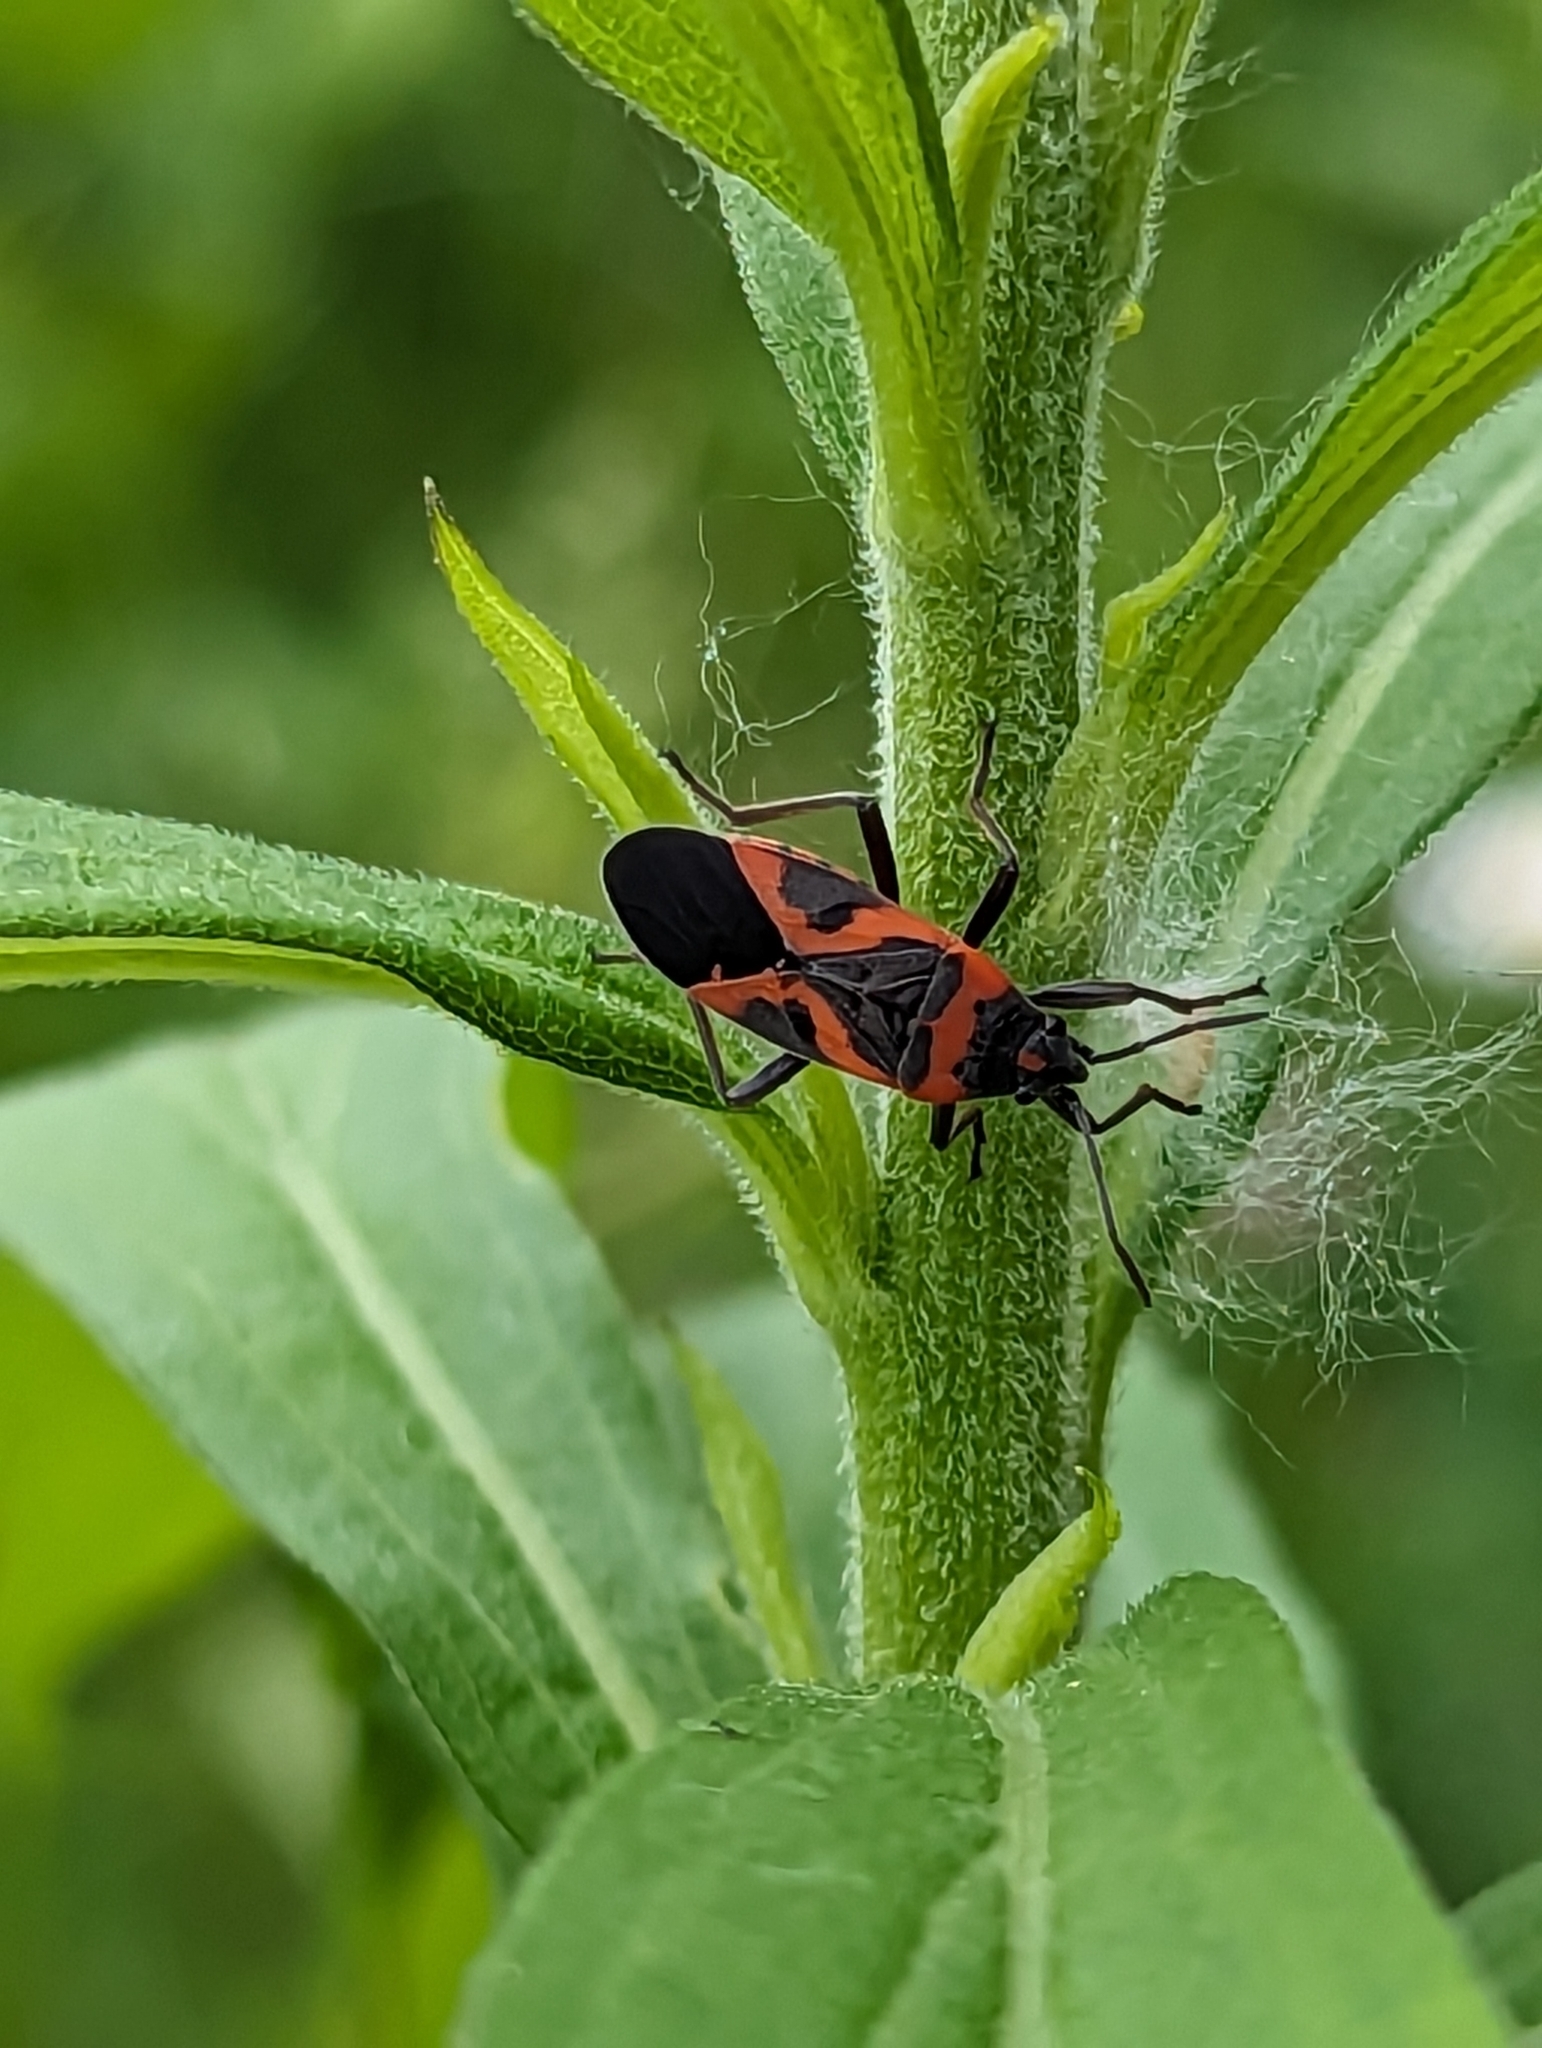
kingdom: Animalia
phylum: Arthropoda
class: Insecta
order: Hemiptera
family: Lygaeidae
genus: Lygaeus
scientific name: Lygaeus kalmii
